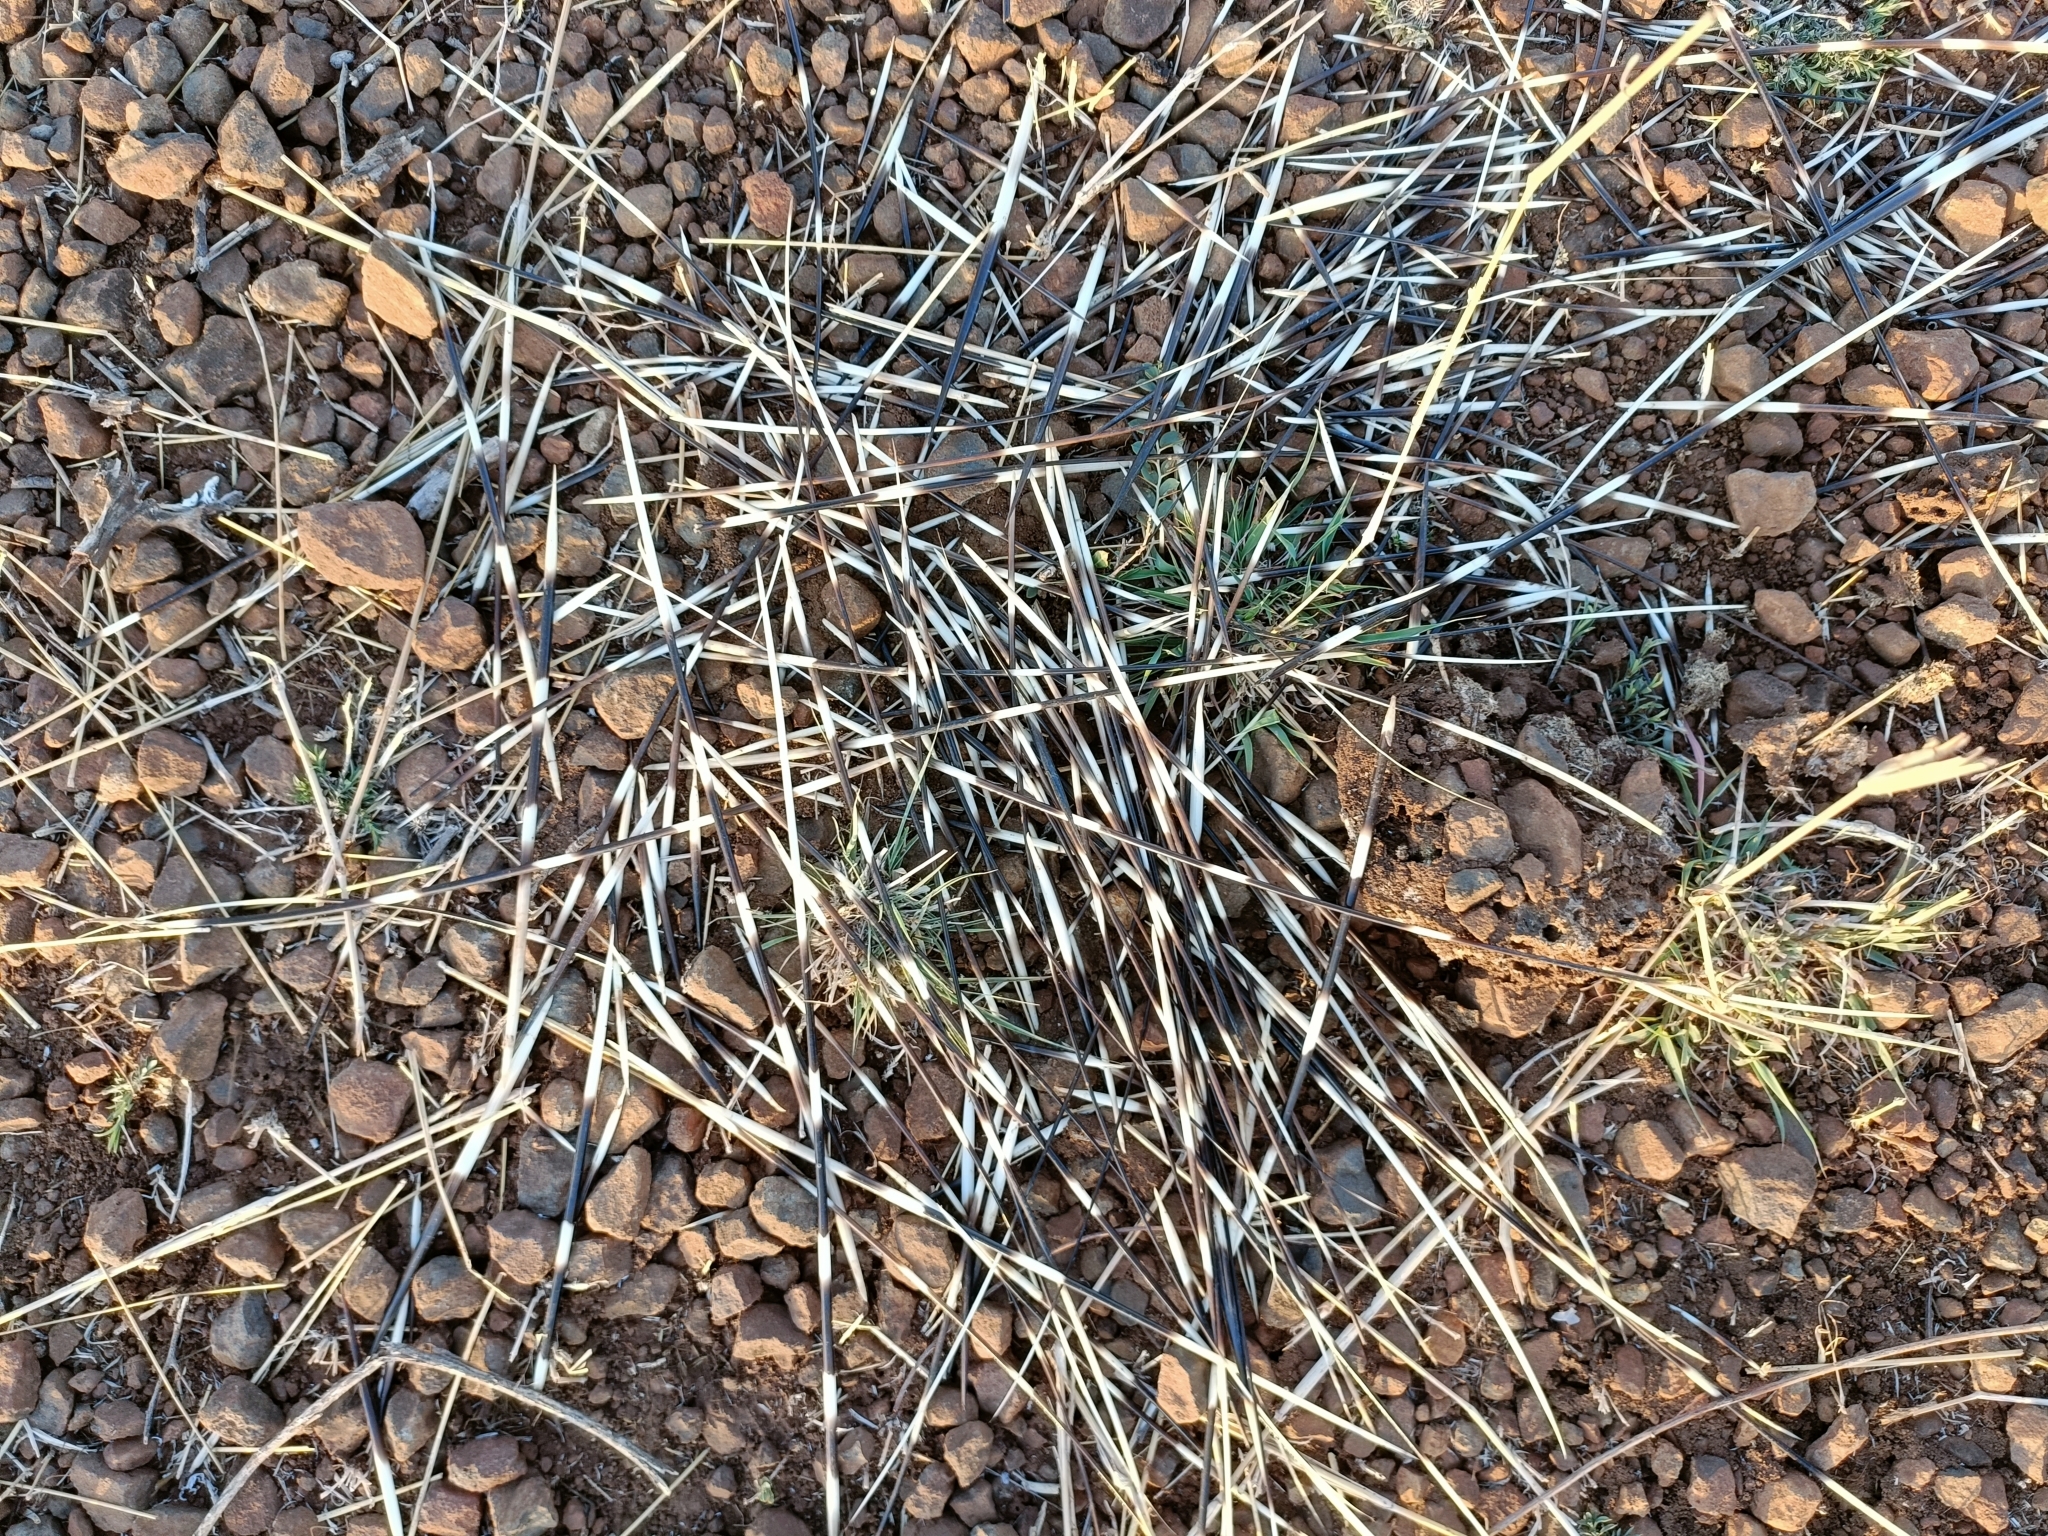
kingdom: Animalia
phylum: Chordata
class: Mammalia
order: Rodentia
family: Hystricidae
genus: Hystrix
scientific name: Hystrix indica
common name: Indian crested porcupine
